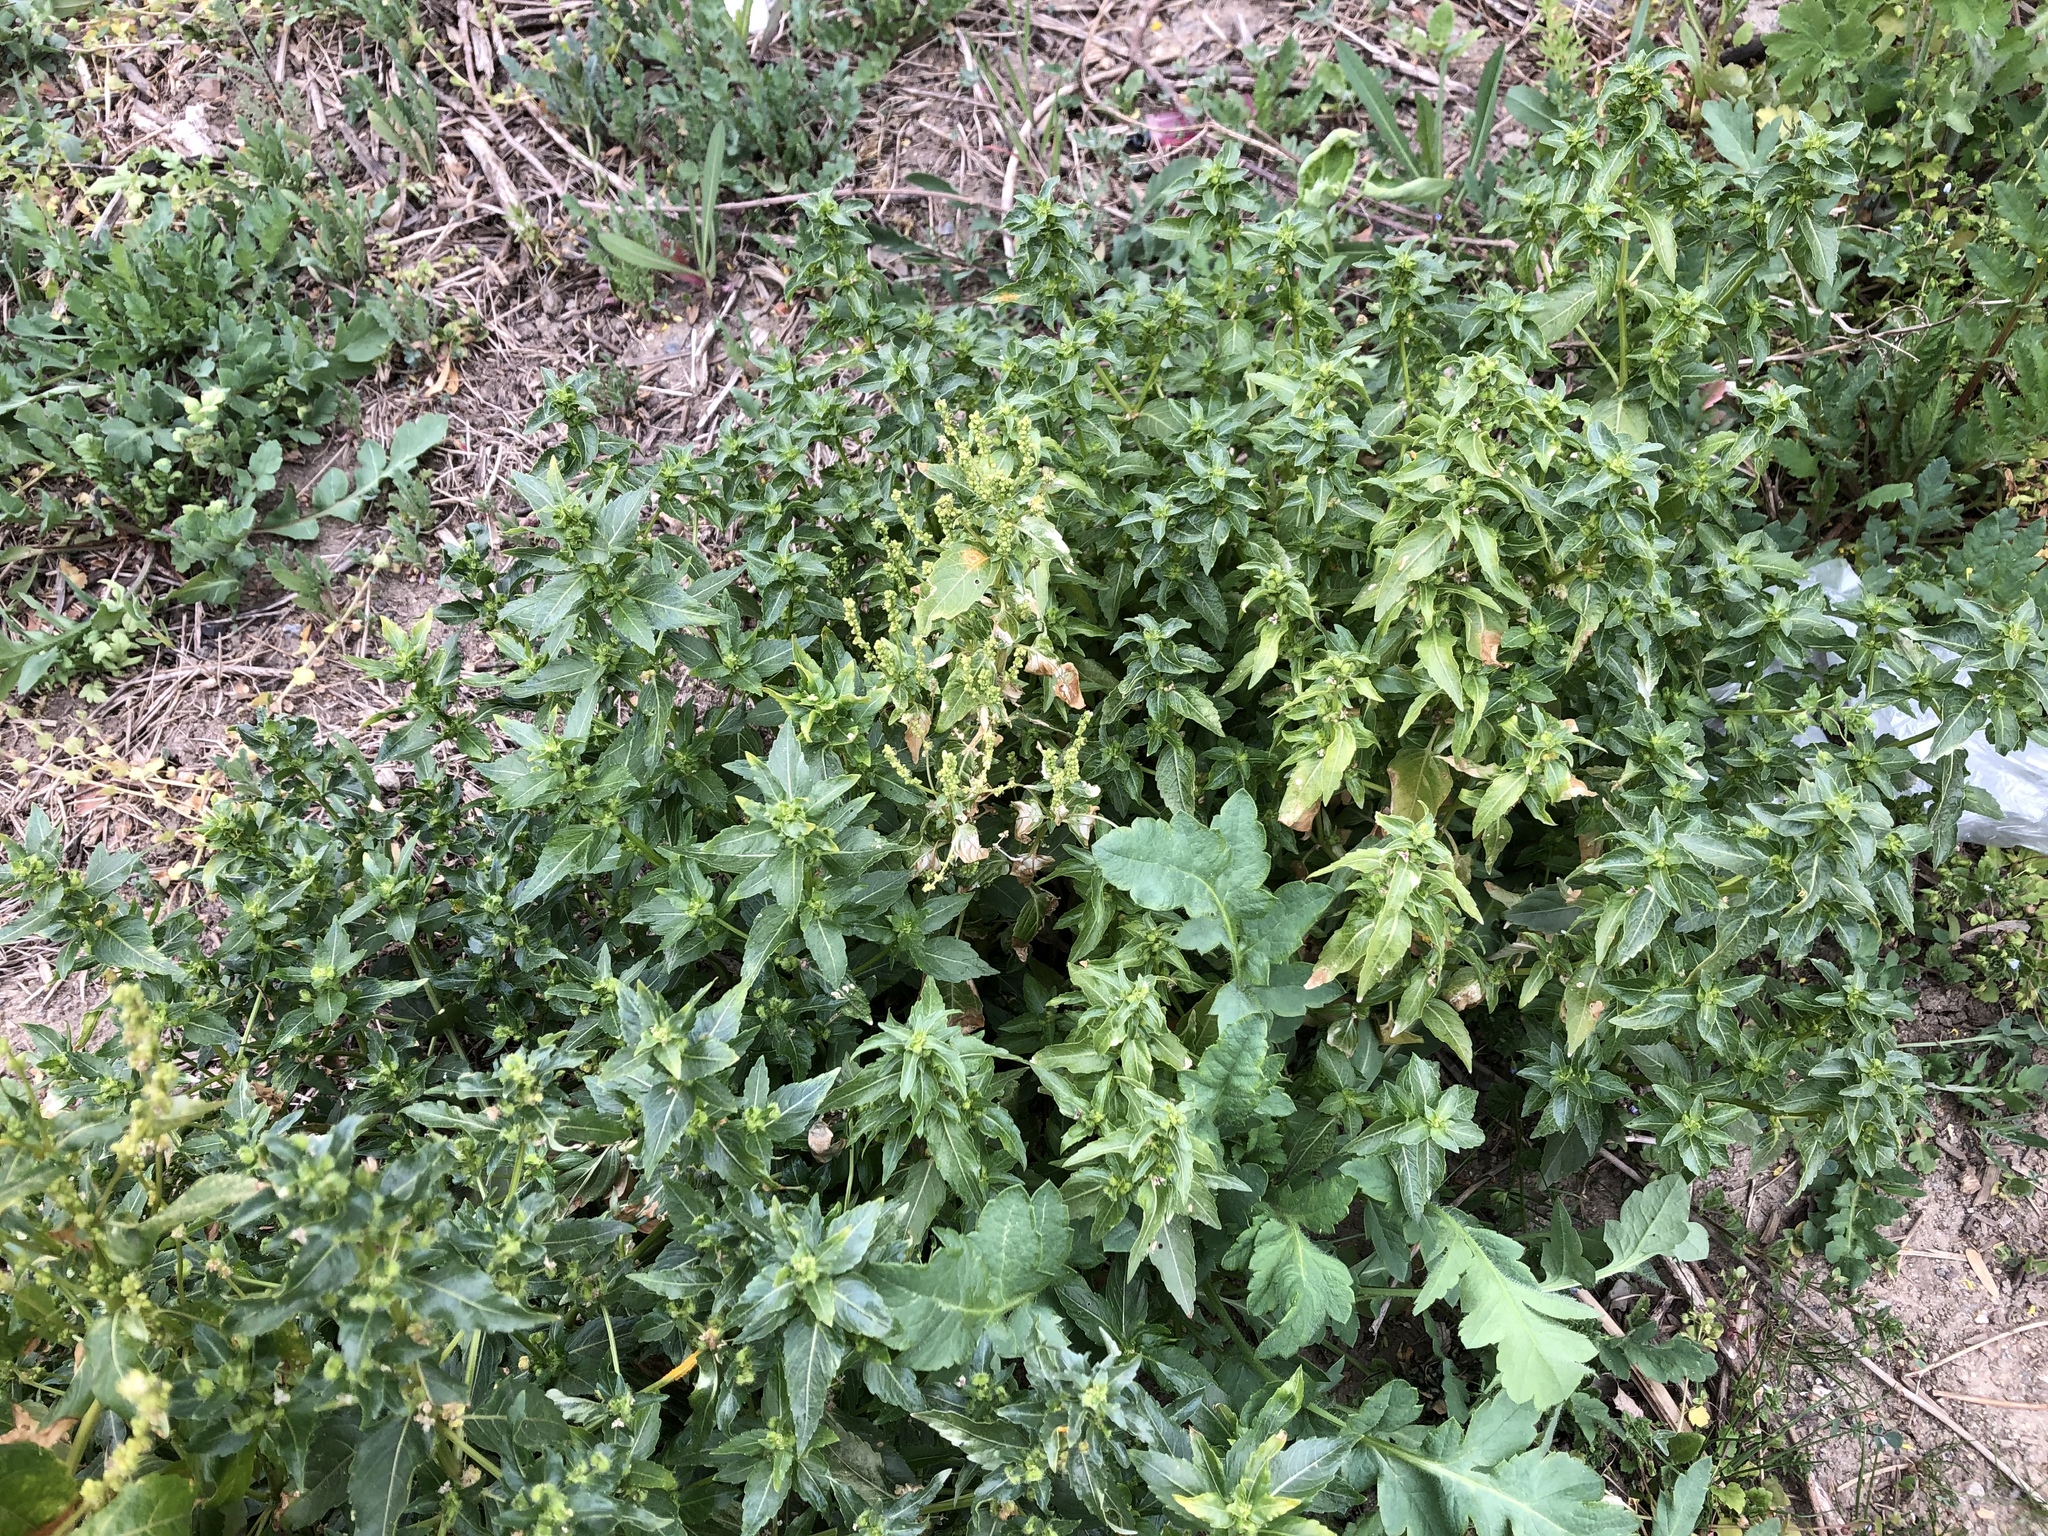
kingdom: Plantae
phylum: Tracheophyta
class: Magnoliopsida
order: Malpighiales
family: Euphorbiaceae
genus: Mercurialis
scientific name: Mercurialis annua
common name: Annual mercury
